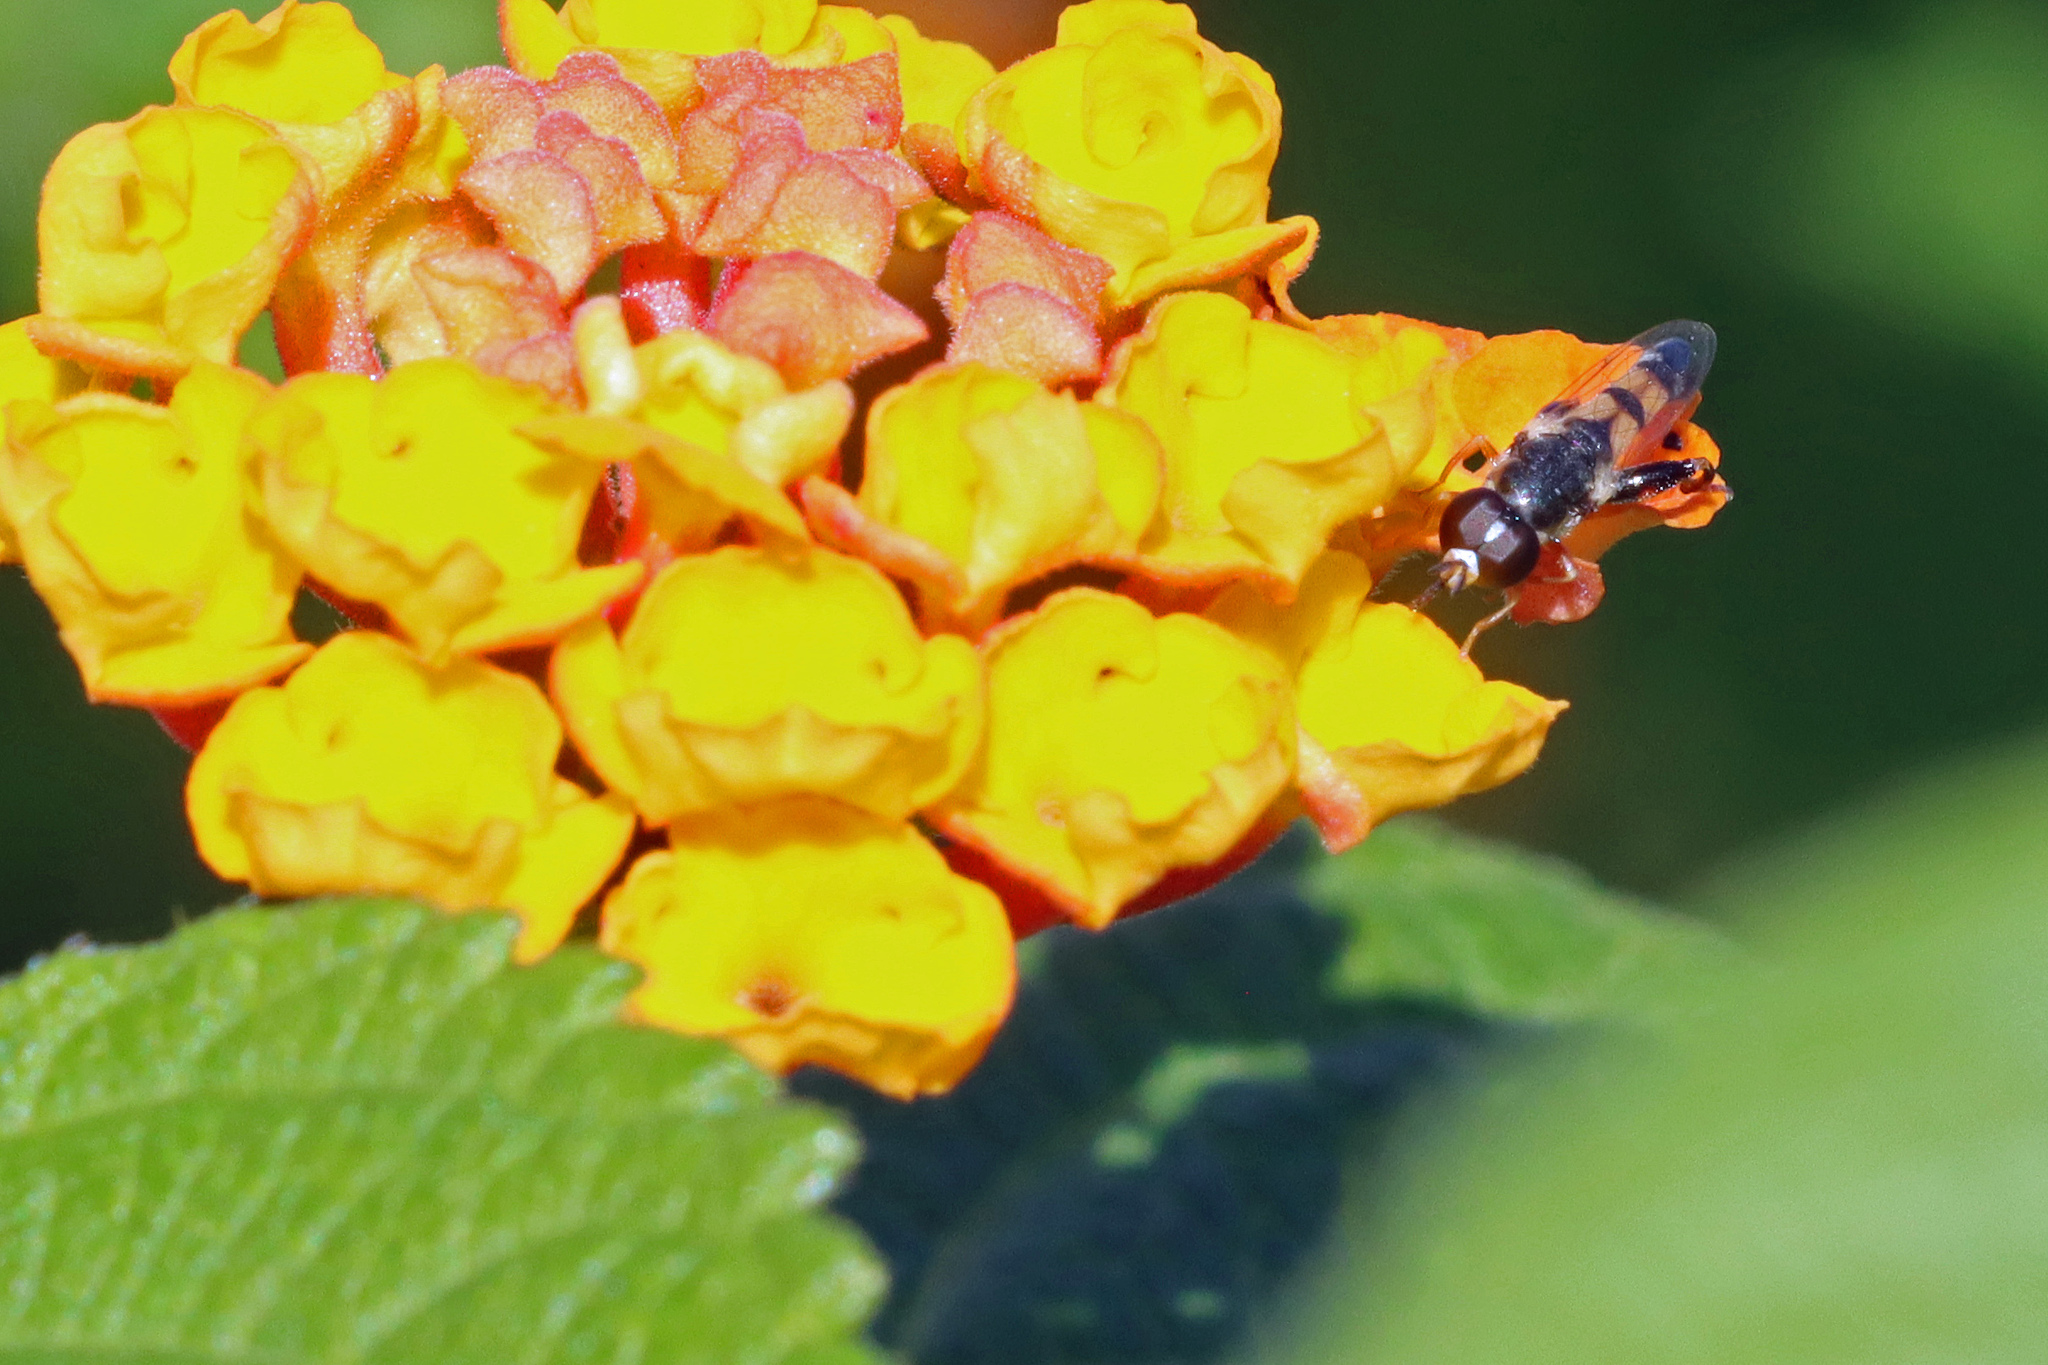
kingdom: Animalia
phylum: Arthropoda
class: Insecta
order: Diptera
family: Syrphidae
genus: Syritta
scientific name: Syritta flaviventris
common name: Syrphid fly
